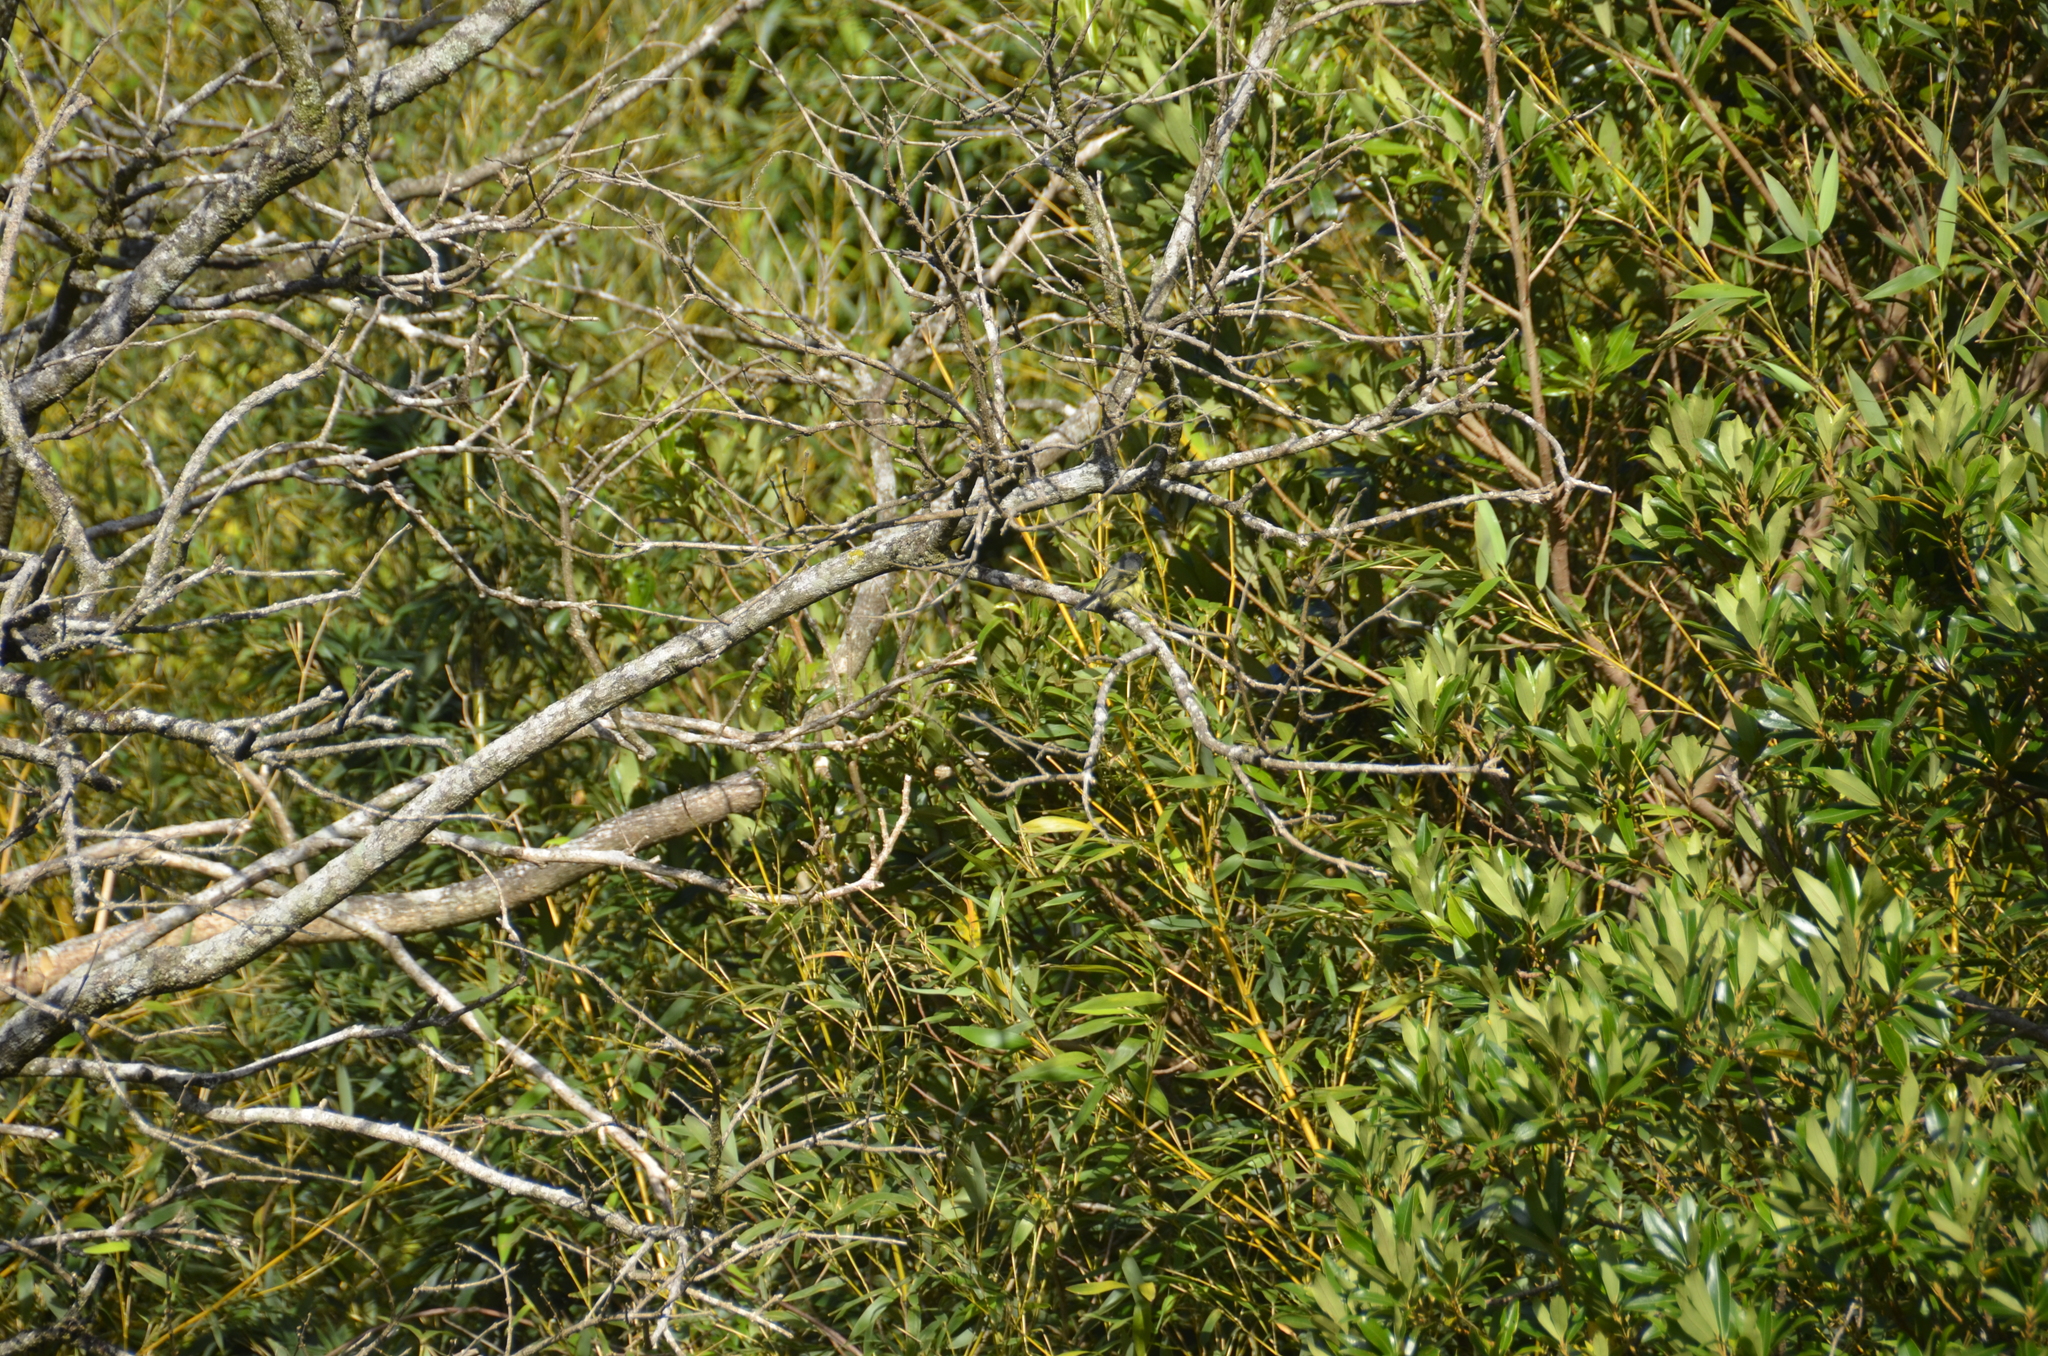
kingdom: Animalia
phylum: Chordata
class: Aves
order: Passeriformes
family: Tyrannidae
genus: Todirostrum
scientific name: Todirostrum cinereum
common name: Common tody-flycatcher
